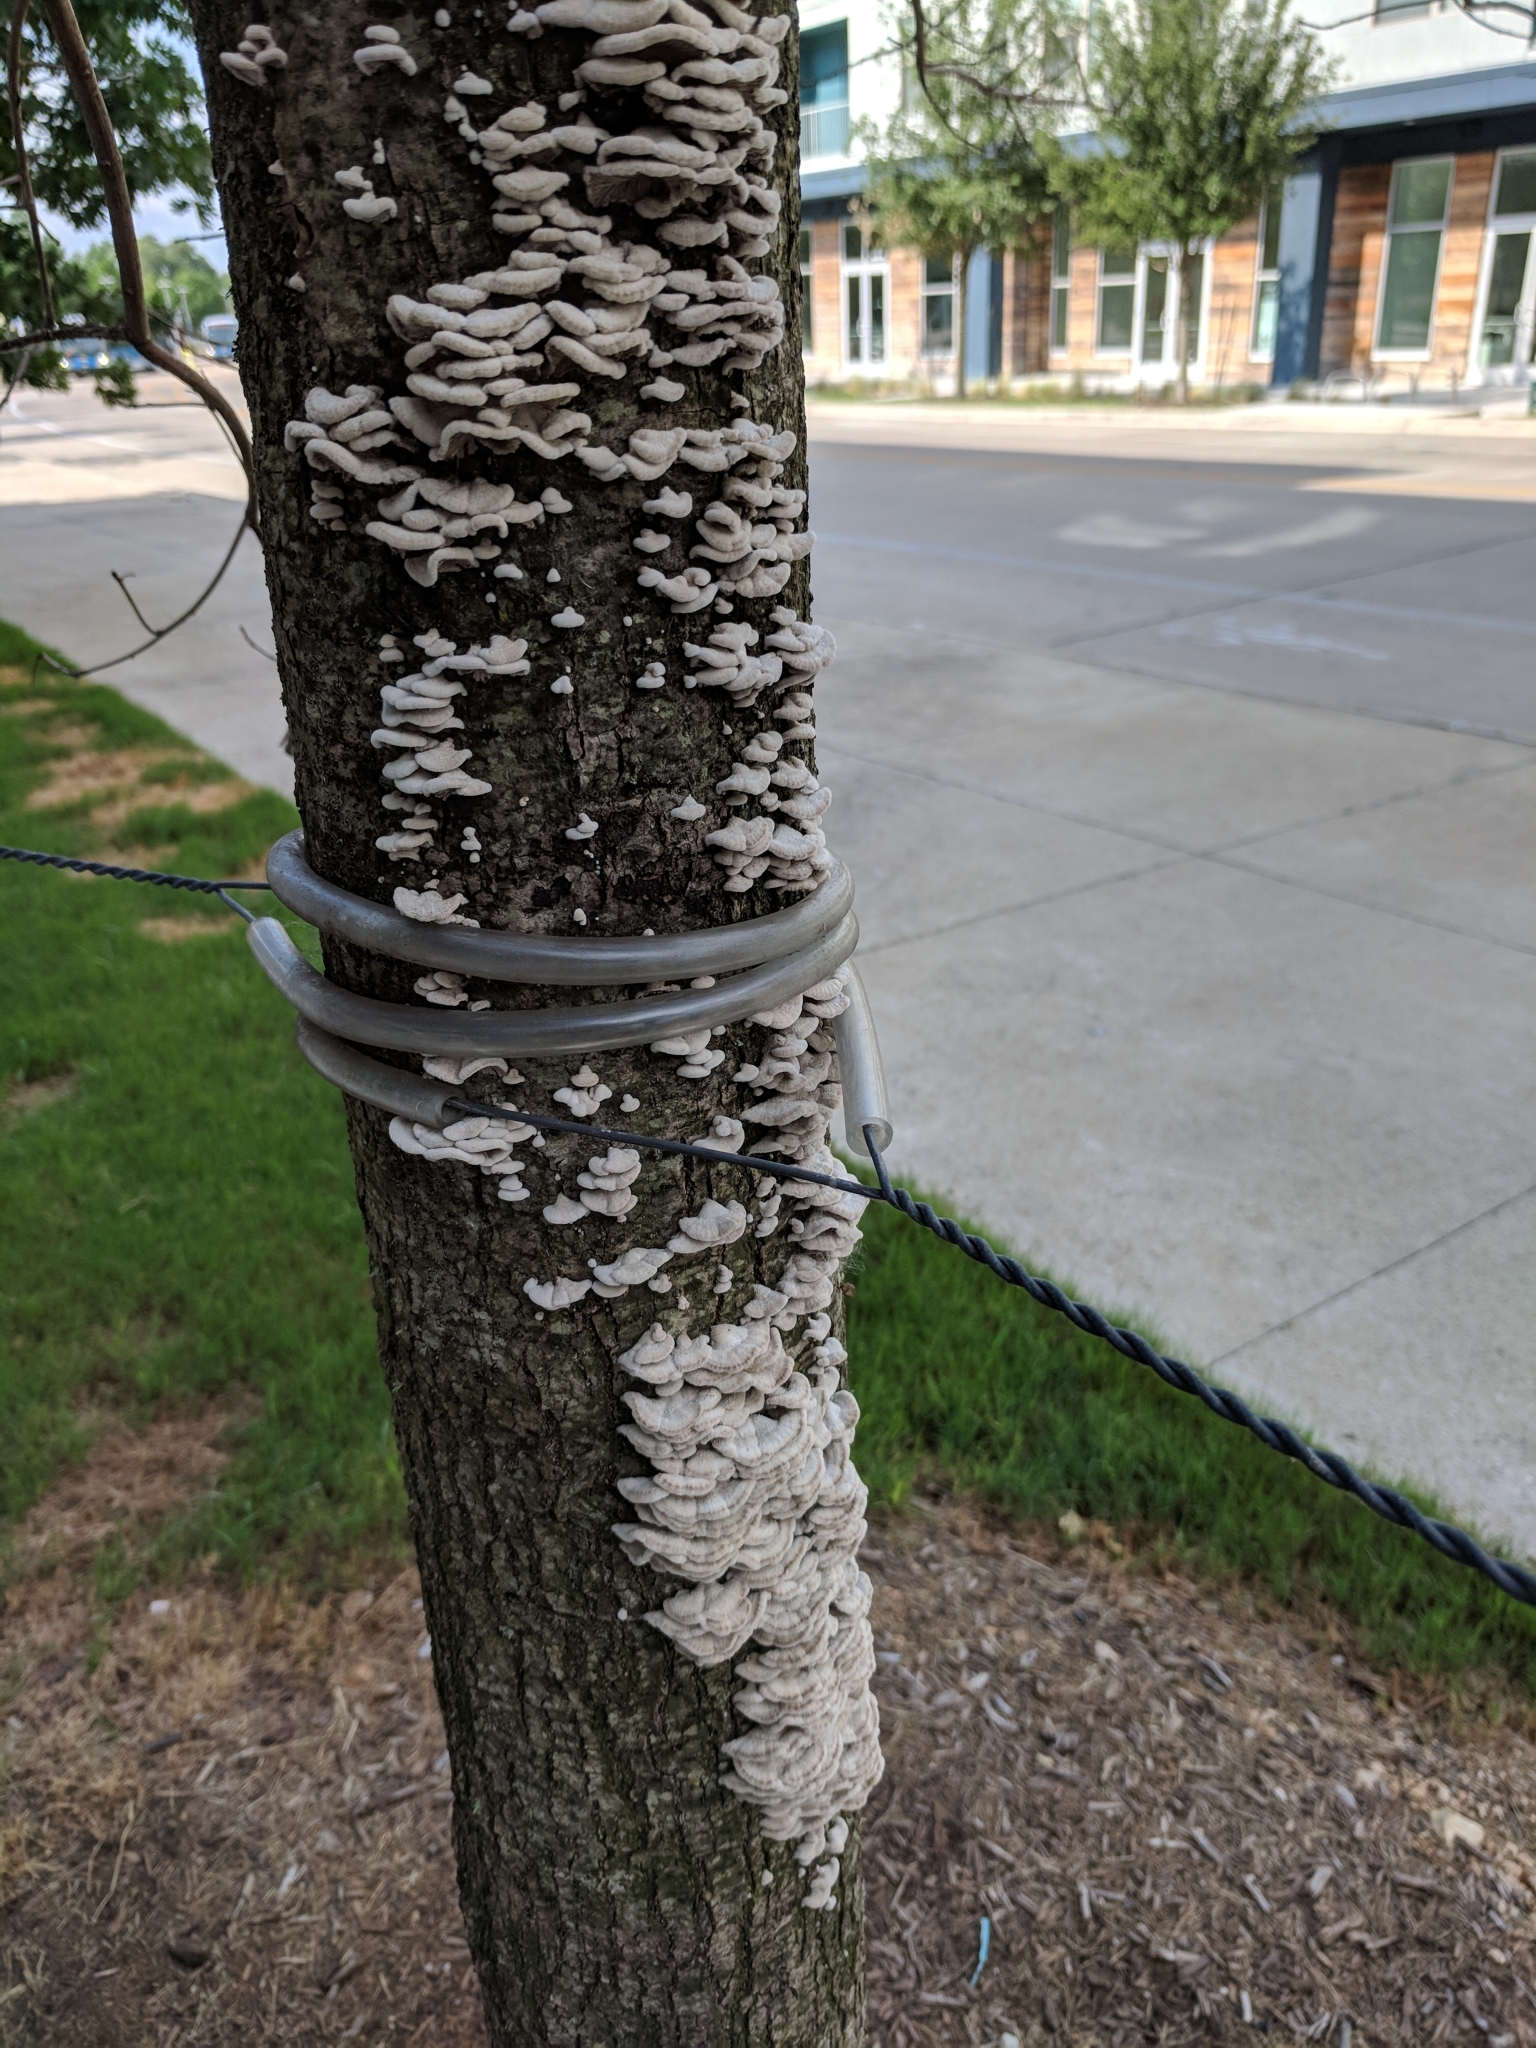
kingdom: Fungi
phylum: Basidiomycota
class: Agaricomycetes
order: Agaricales
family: Schizophyllaceae
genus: Schizophyllum
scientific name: Schizophyllum commune
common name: Common porecrust
